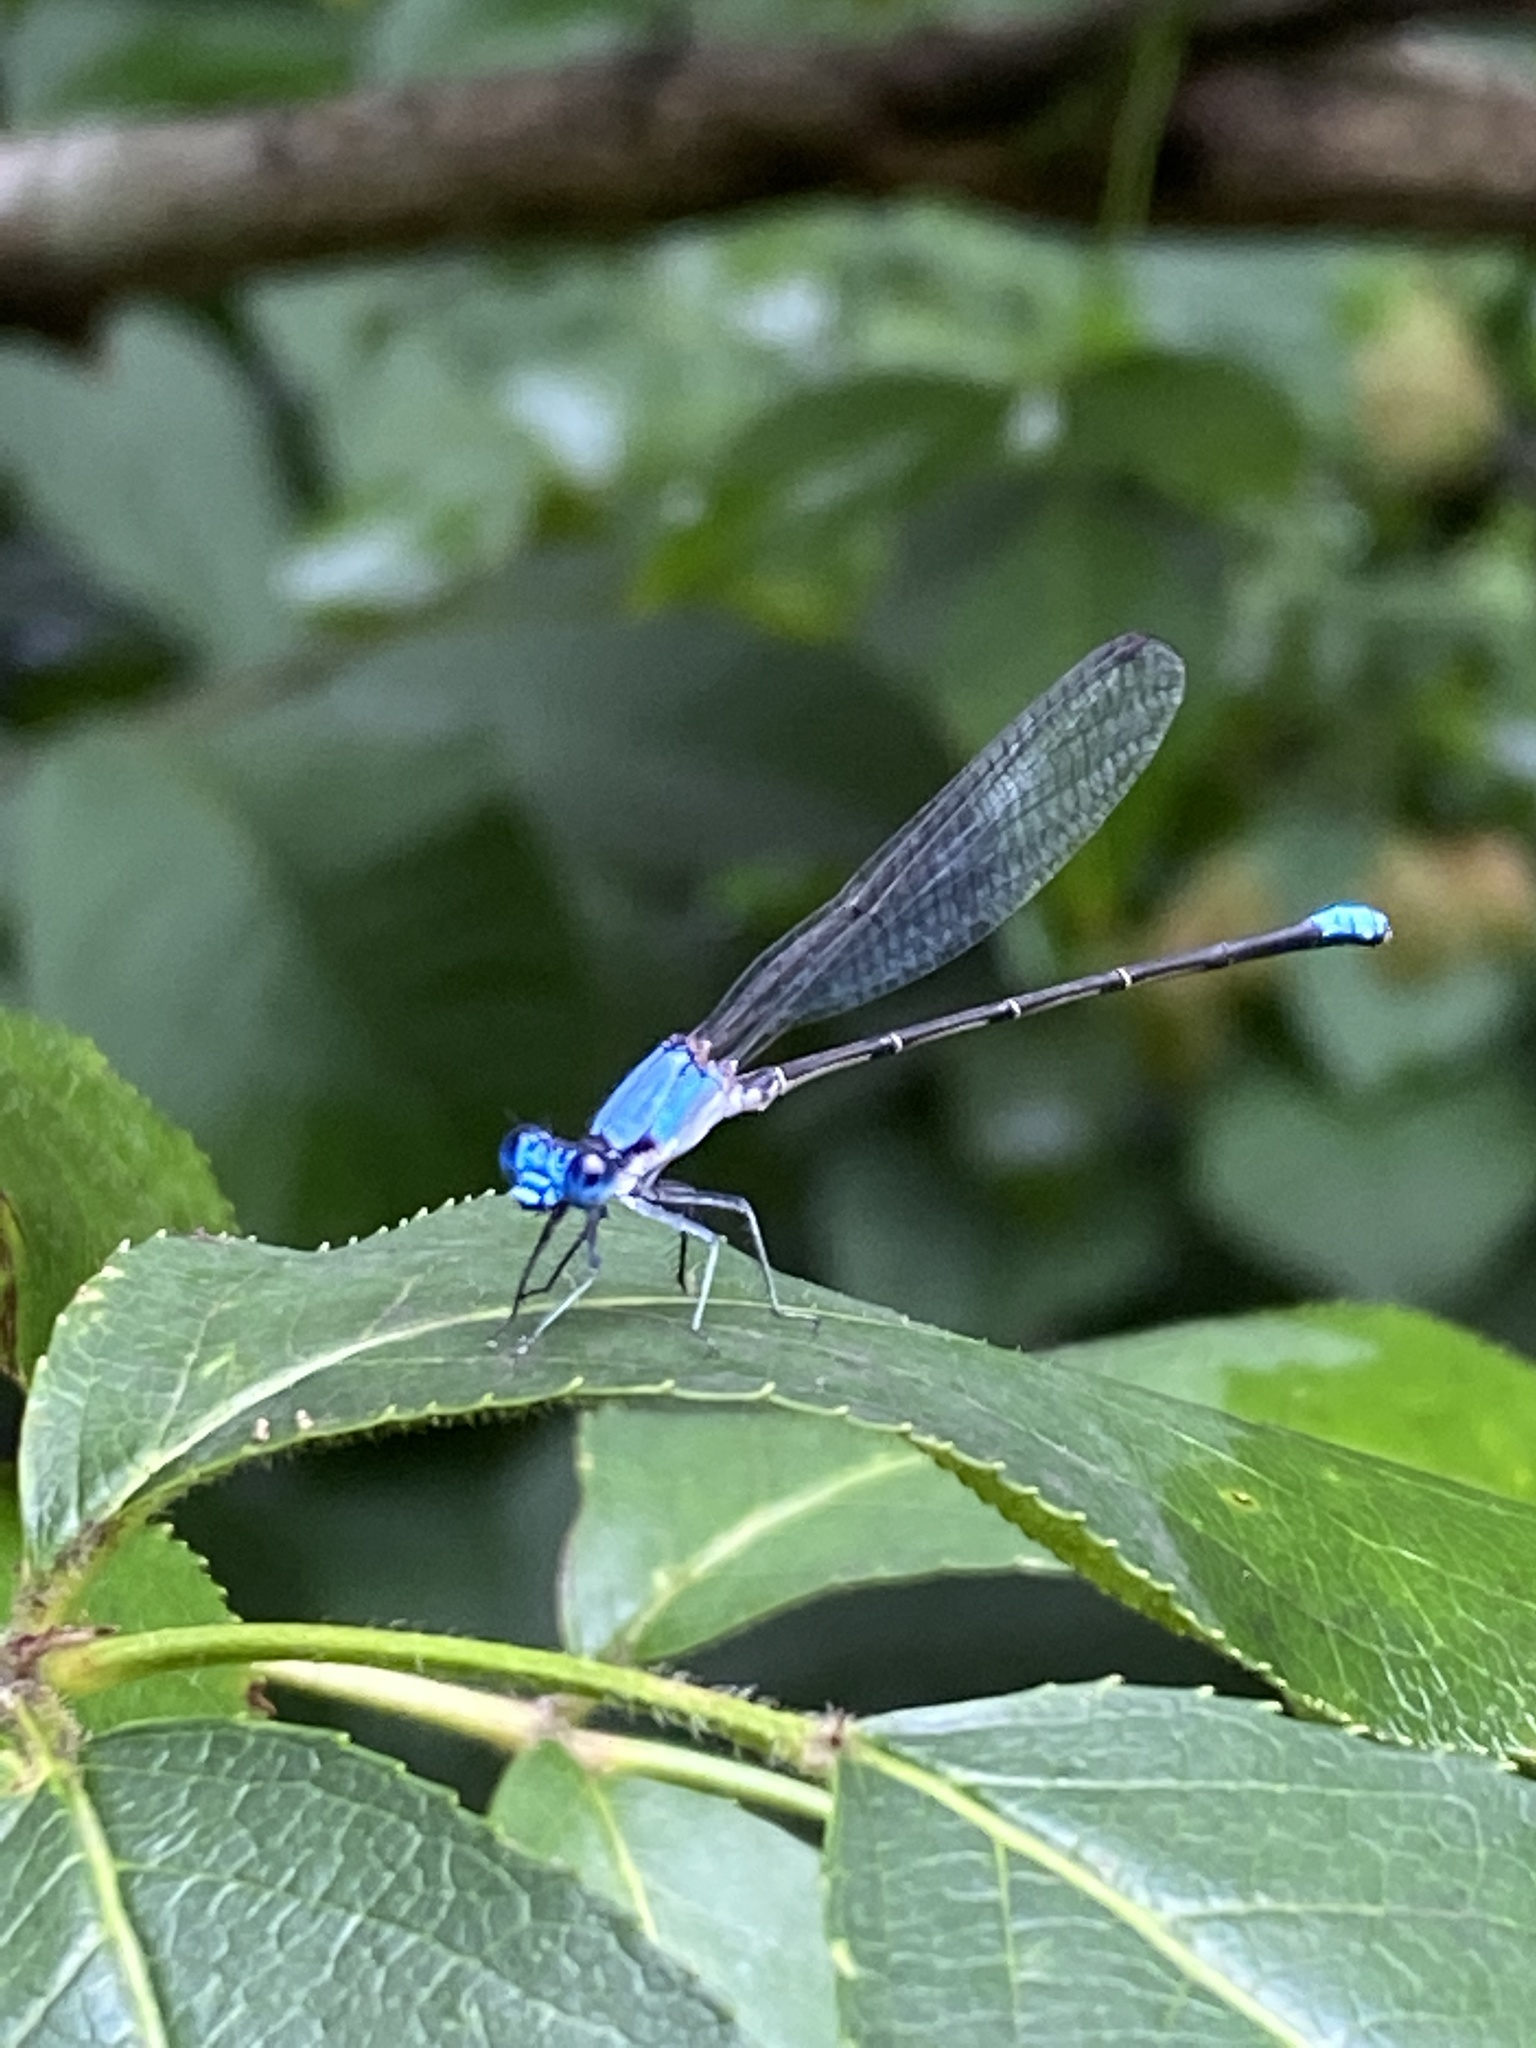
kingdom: Animalia
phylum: Arthropoda
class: Insecta
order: Odonata
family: Coenagrionidae
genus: Argia
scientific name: Argia apicalis
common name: Blue-fronted dancer
